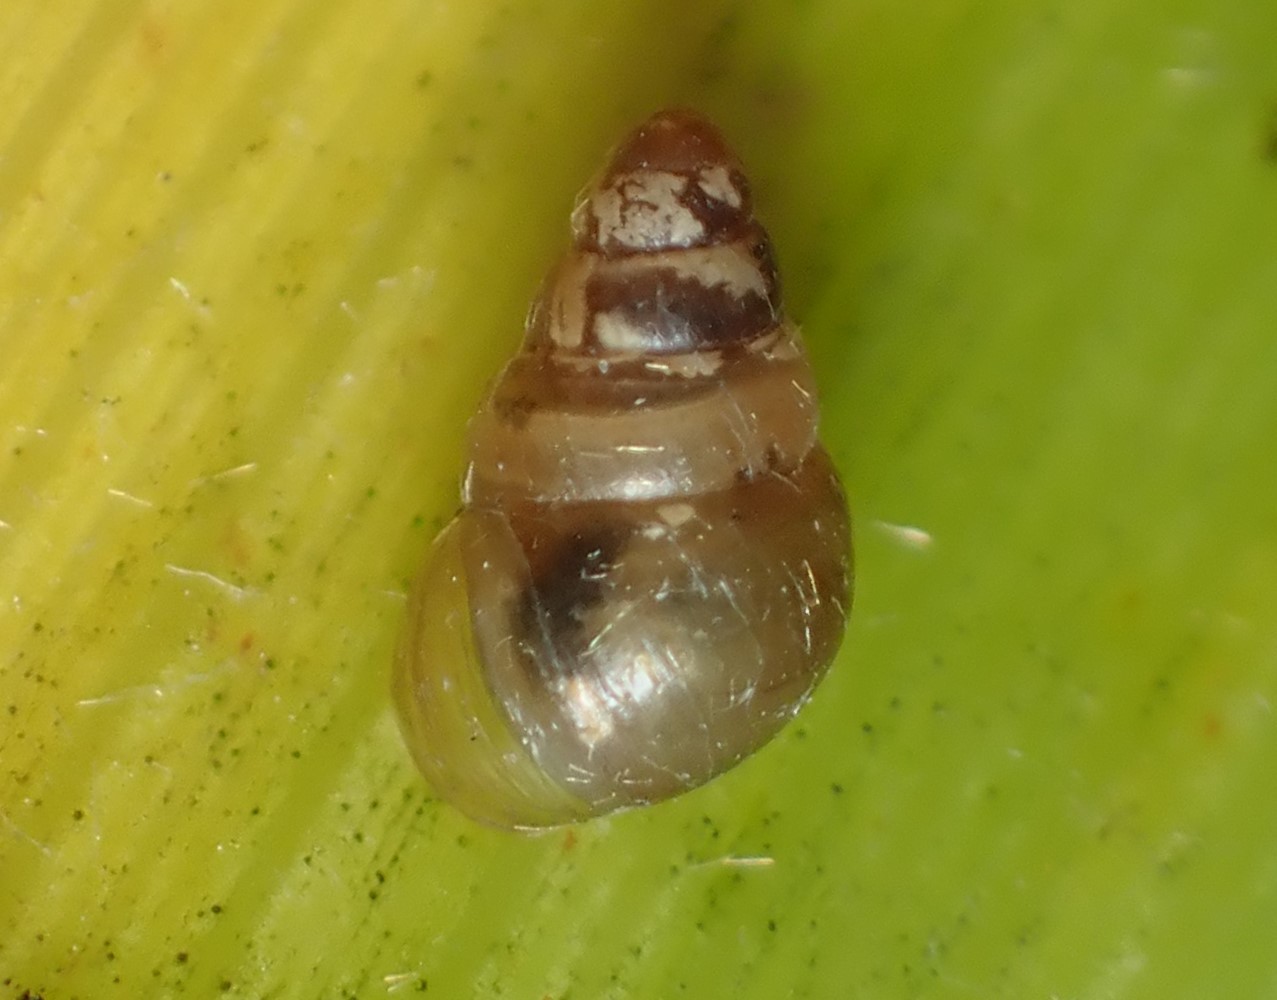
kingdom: Animalia
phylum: Mollusca
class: Gastropoda
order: Stylommatophora
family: Achatinellidae
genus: Tornatellides
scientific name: Tornatellides subperforatus
